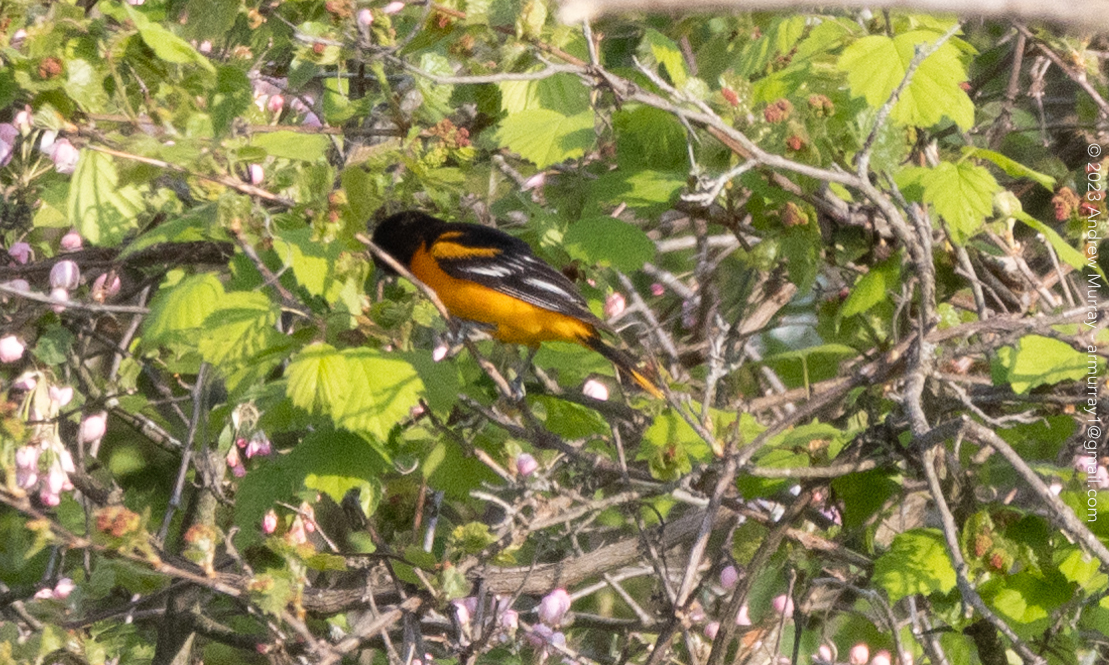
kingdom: Animalia
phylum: Chordata
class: Aves
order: Passeriformes
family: Icteridae
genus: Icterus
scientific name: Icterus galbula
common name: Baltimore oriole
